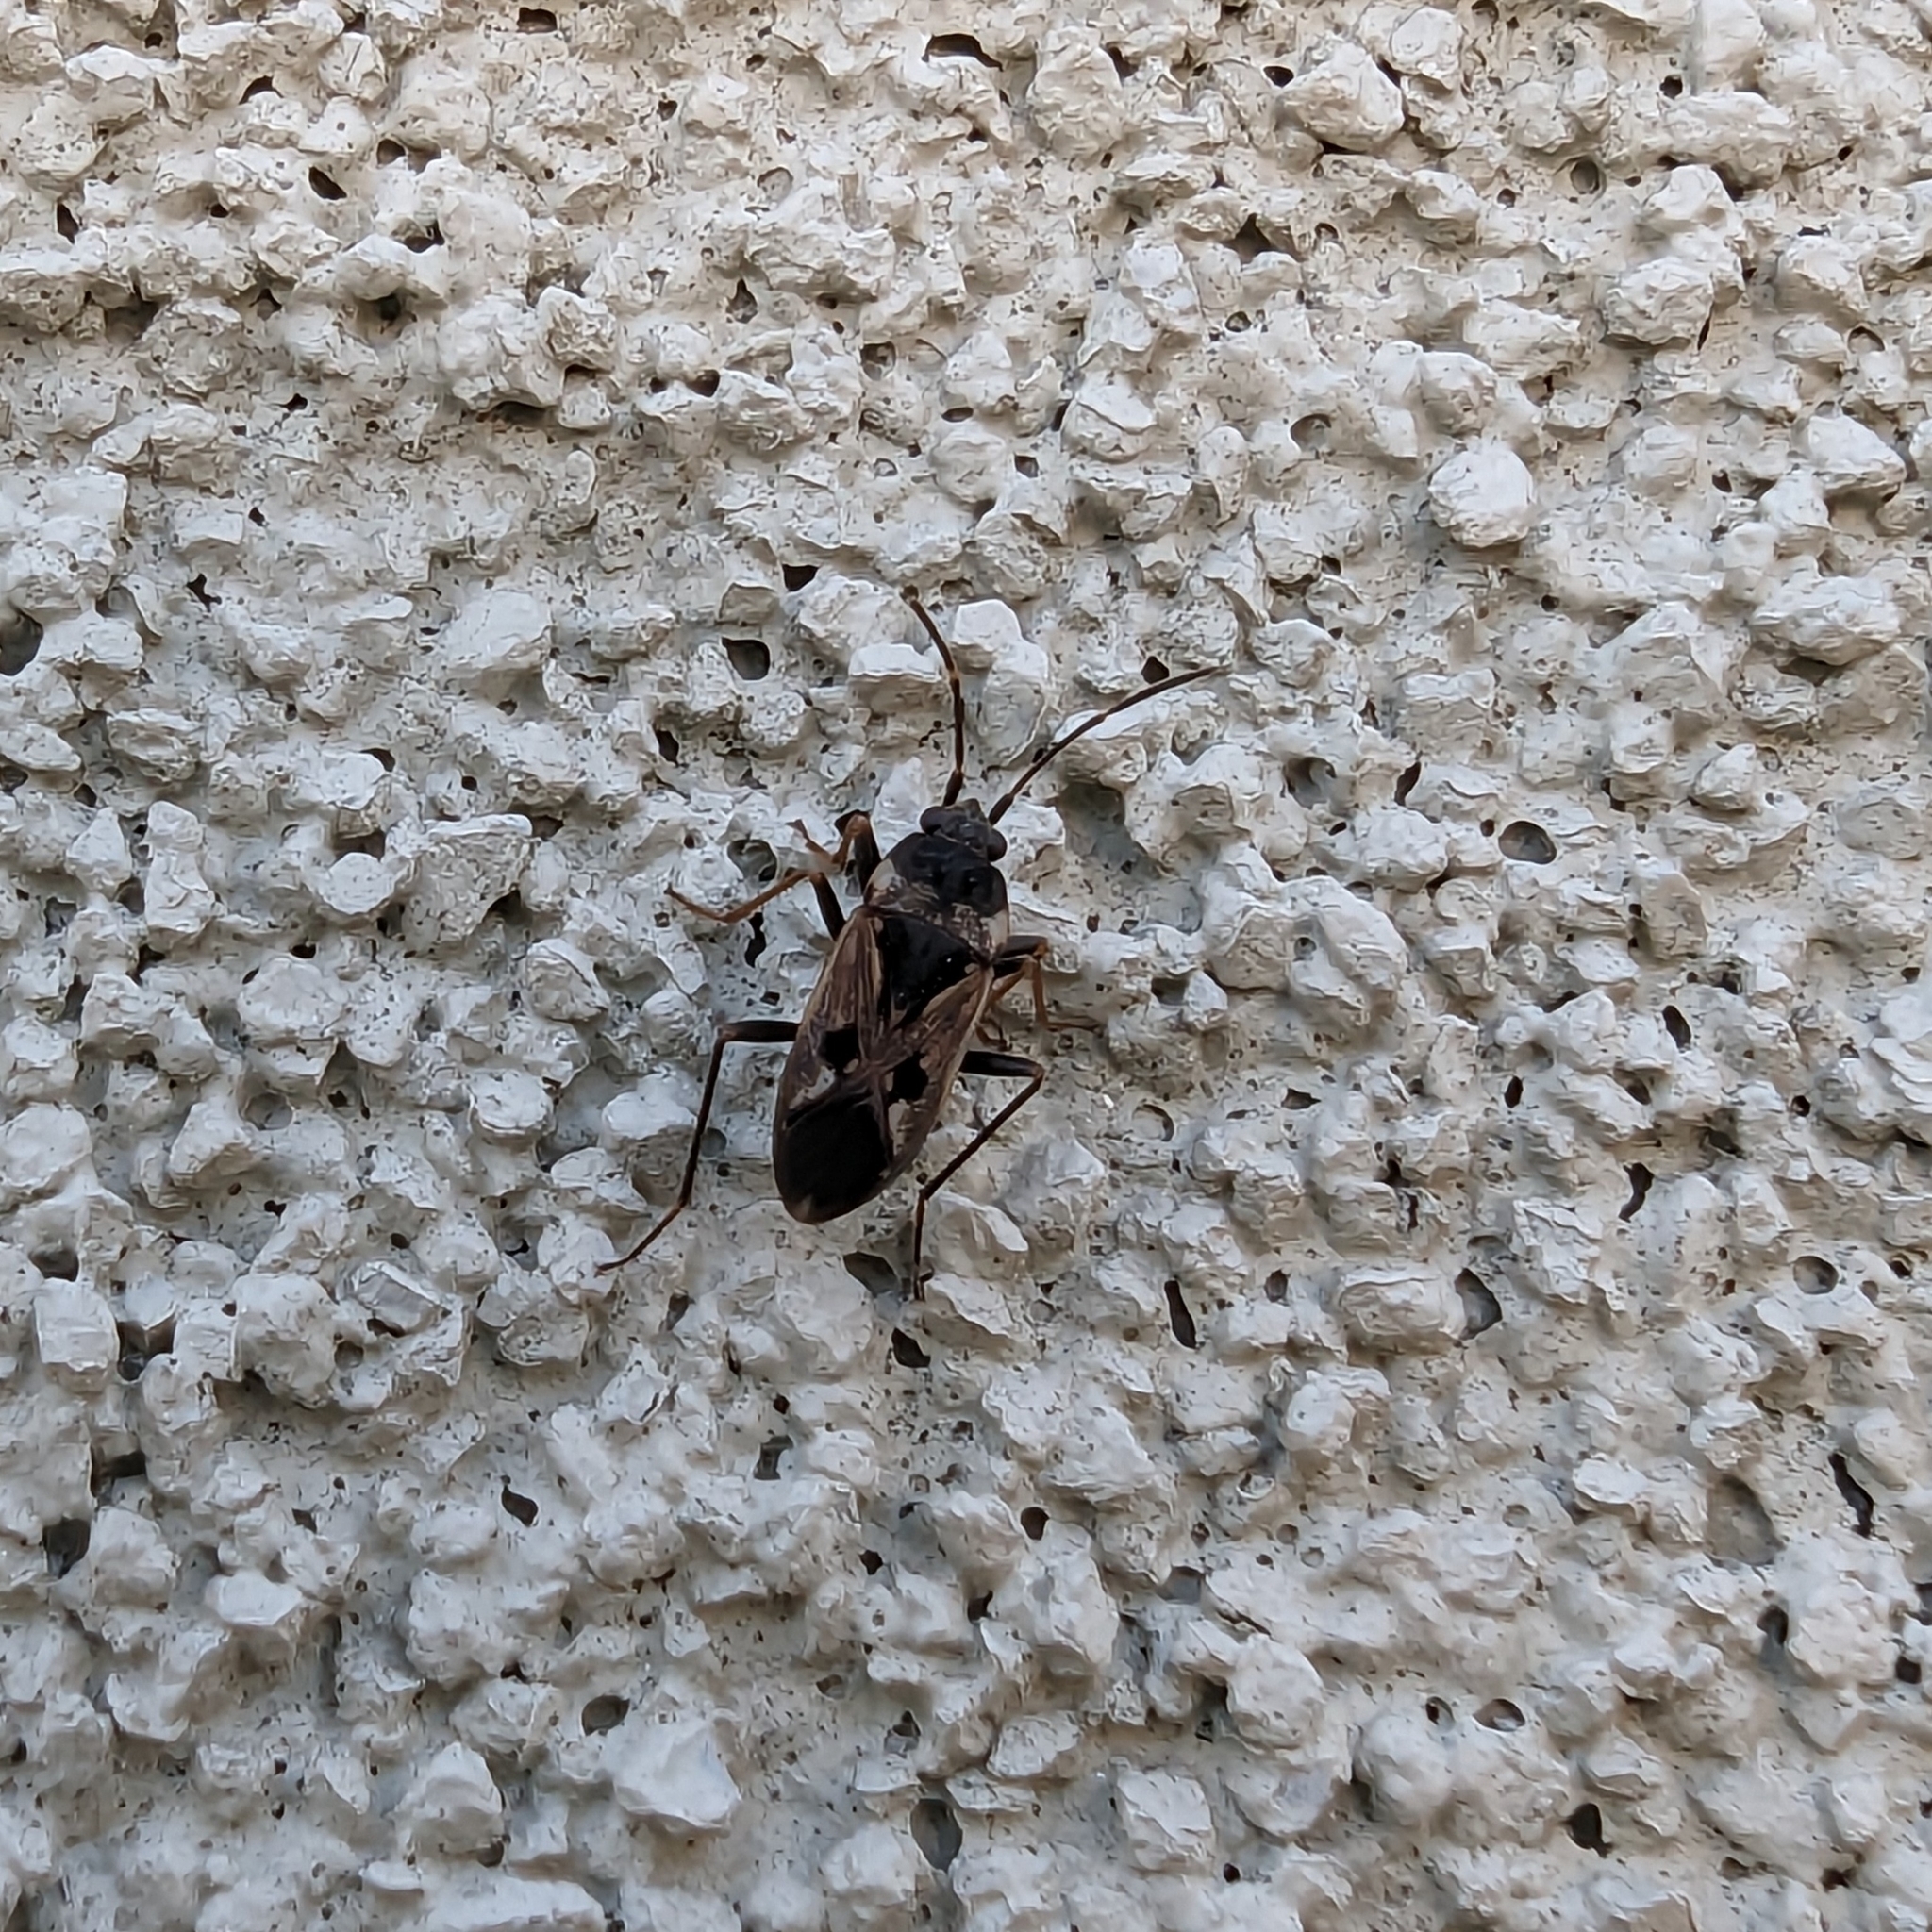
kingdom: Animalia
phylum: Arthropoda
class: Insecta
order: Hemiptera
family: Rhyparochromidae
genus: Rhyparochromus
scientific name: Rhyparochromus vulgaris
